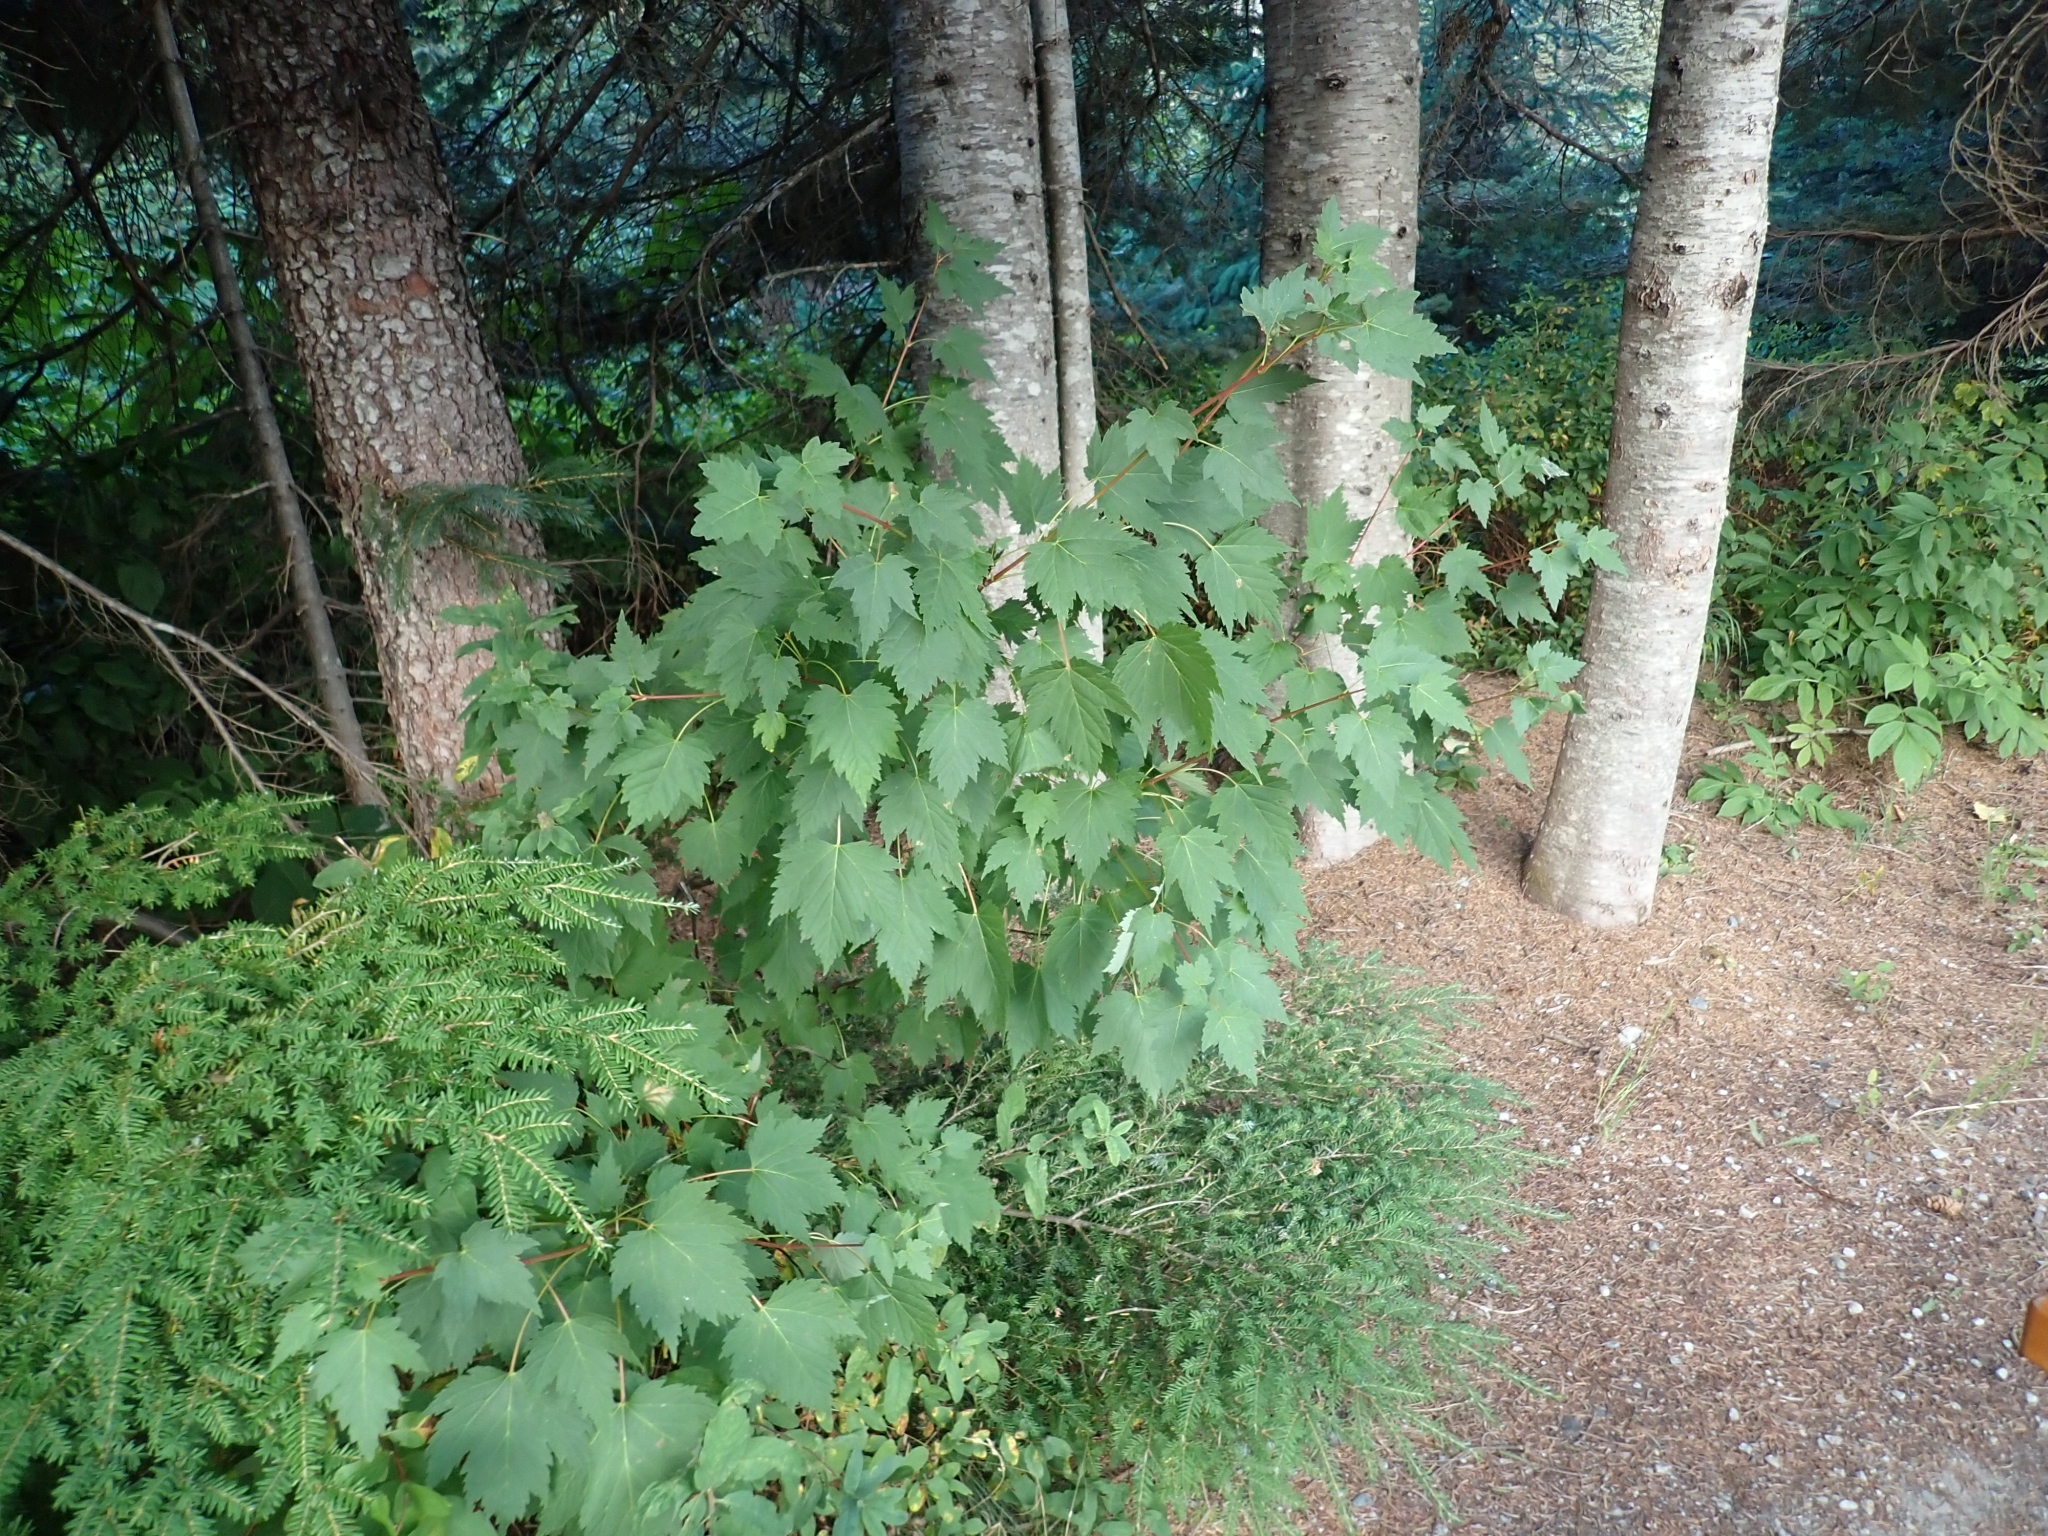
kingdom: Plantae
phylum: Tracheophyta
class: Magnoliopsida
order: Sapindales
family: Sapindaceae
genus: Acer
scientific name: Acer glabrum
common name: Rocky mountain maple
